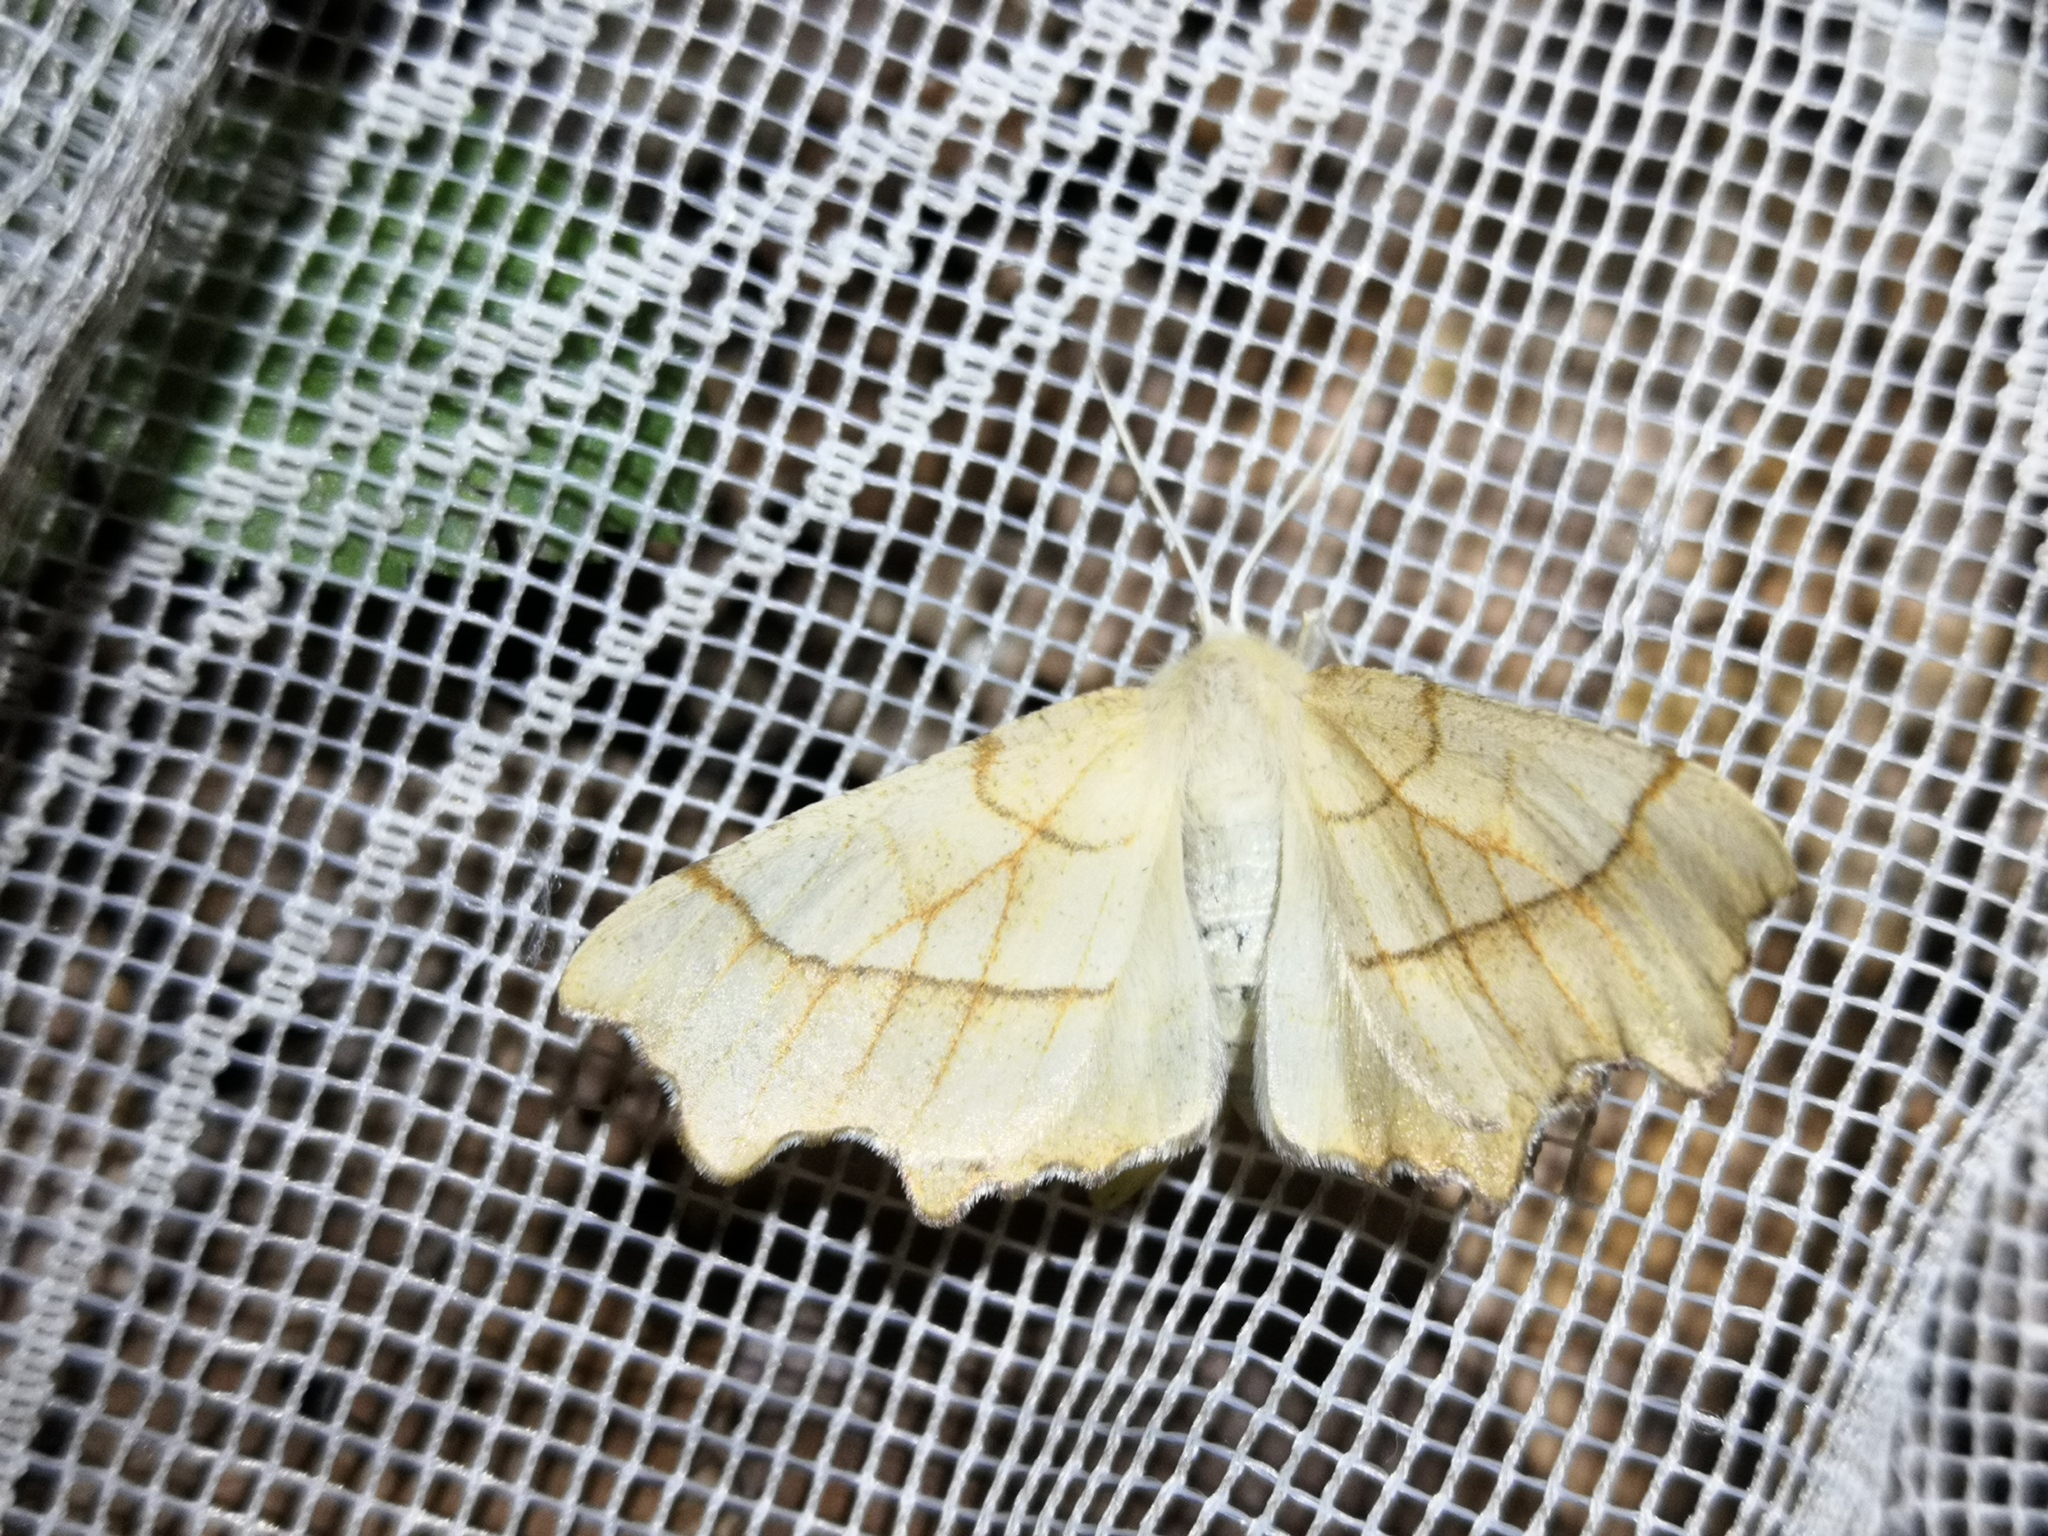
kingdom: Animalia
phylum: Arthropoda
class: Insecta
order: Lepidoptera
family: Geometridae
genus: Ennomos
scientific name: Ennomos quercinaria
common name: August thorn
